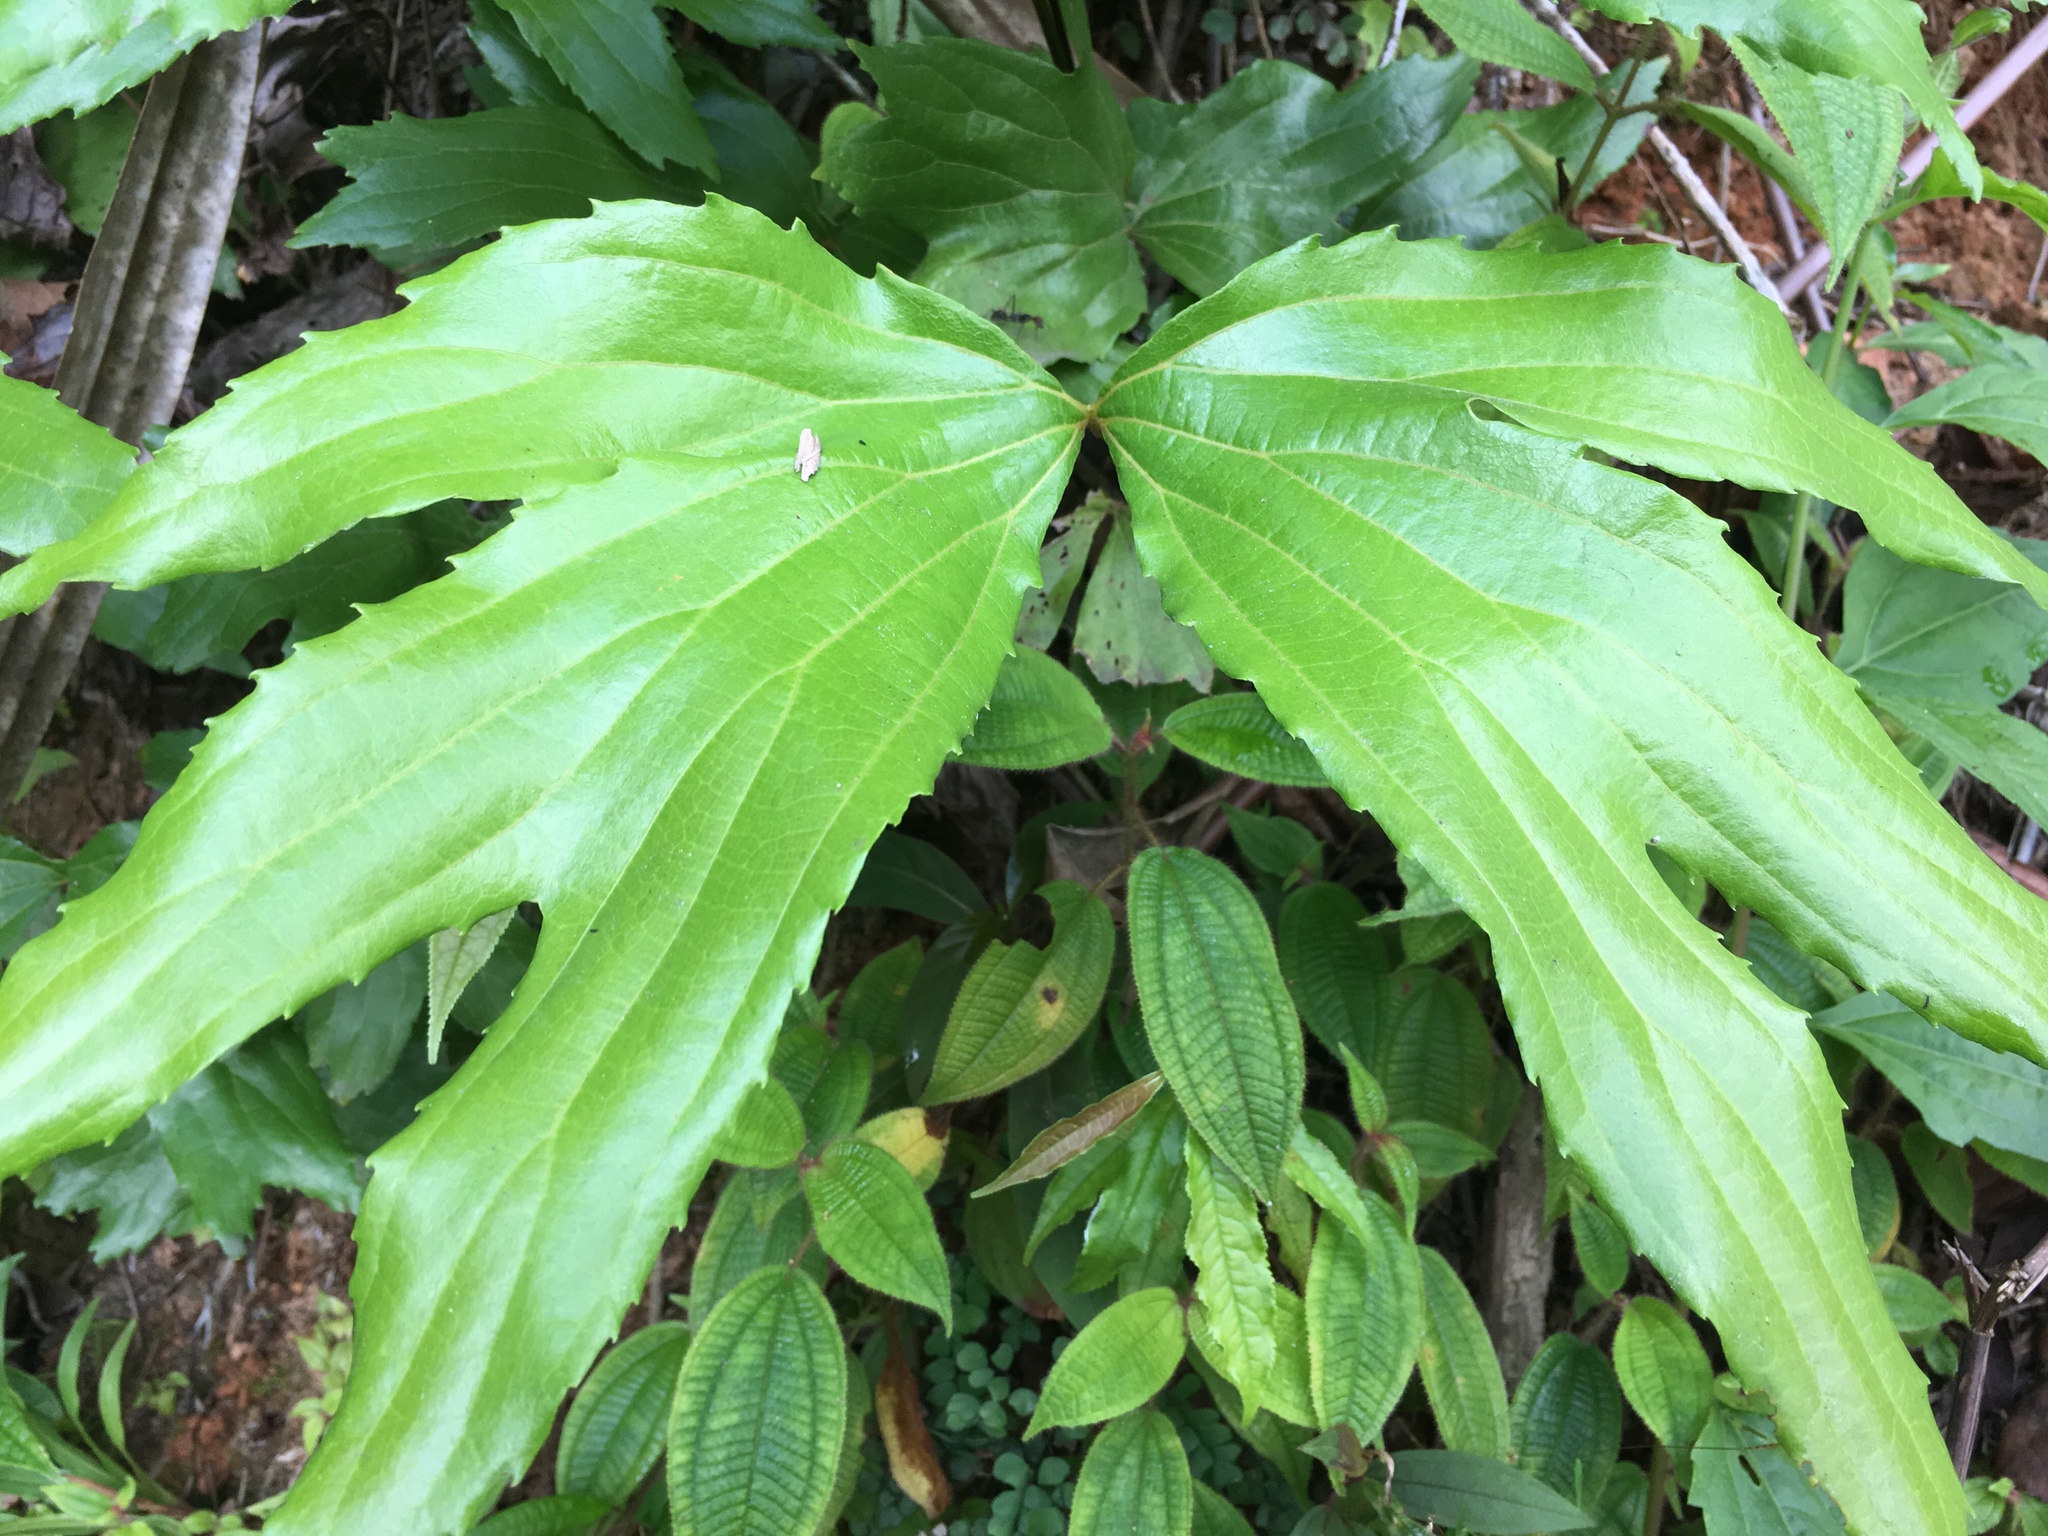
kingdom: Plantae
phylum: Tracheophyta
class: Polypodiopsida
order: Gleicheniales
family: Dipteridaceae
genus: Dipteris
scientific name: Dipteris conjugata
